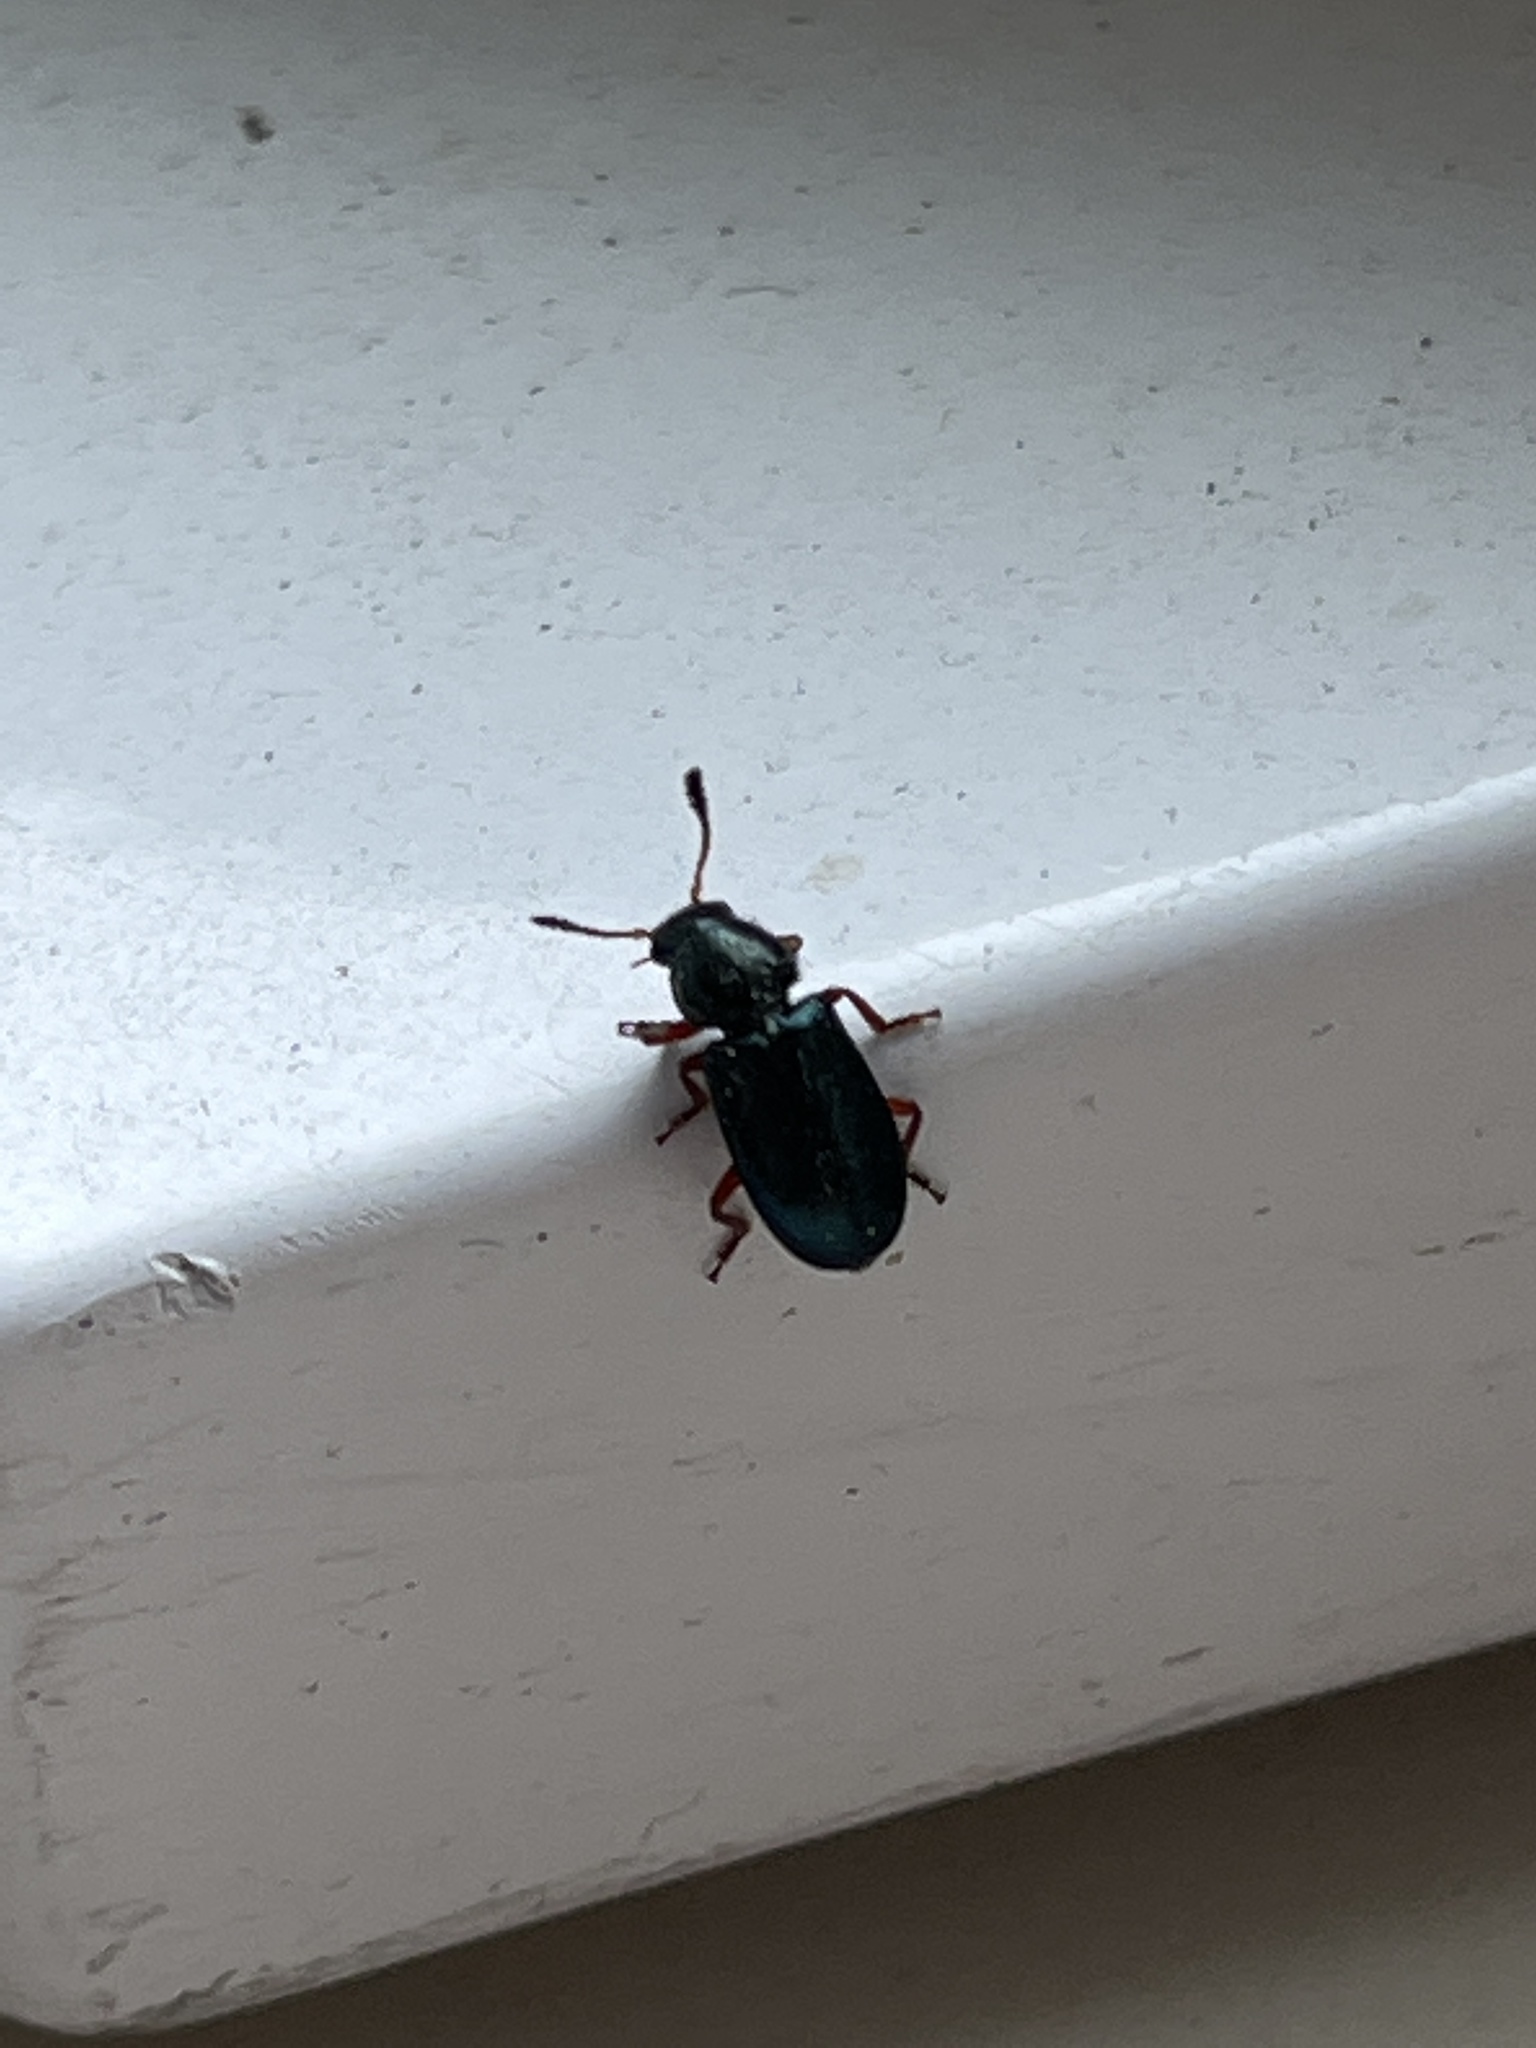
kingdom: Animalia
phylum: Arthropoda
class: Insecta
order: Coleoptera
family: Cleridae
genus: Necrobia
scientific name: Necrobia rufipes
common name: Red-legged ham beetle
